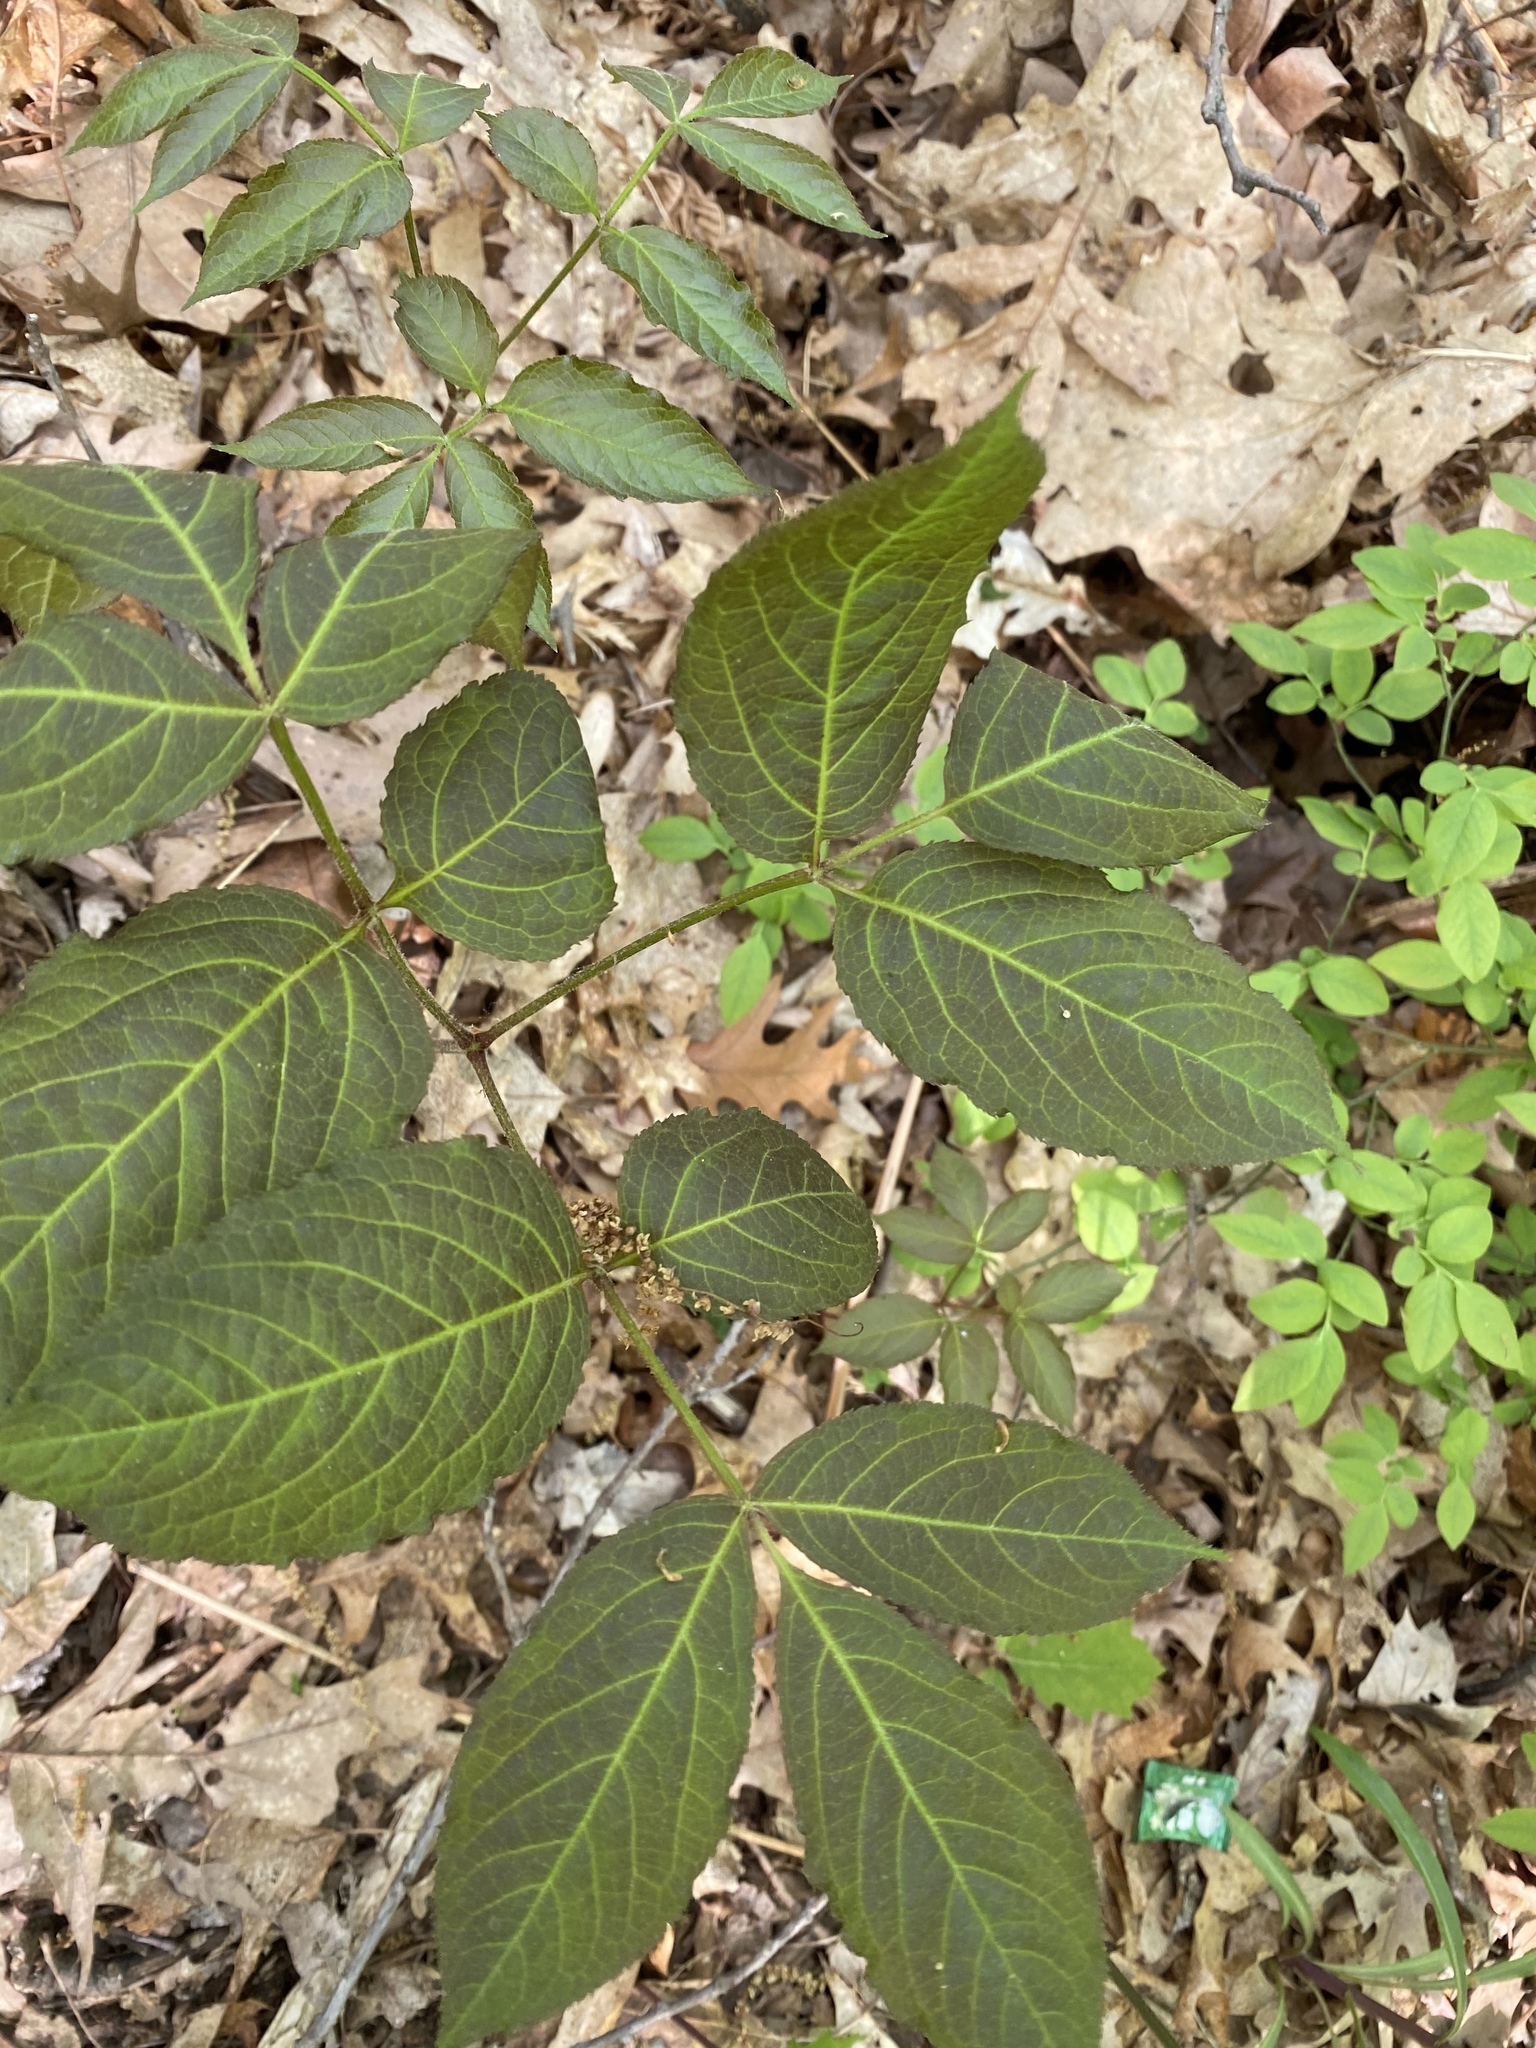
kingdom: Plantae
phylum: Tracheophyta
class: Magnoliopsida
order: Apiales
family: Araliaceae
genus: Aralia
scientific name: Aralia nudicaulis
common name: Wild sarsaparilla
